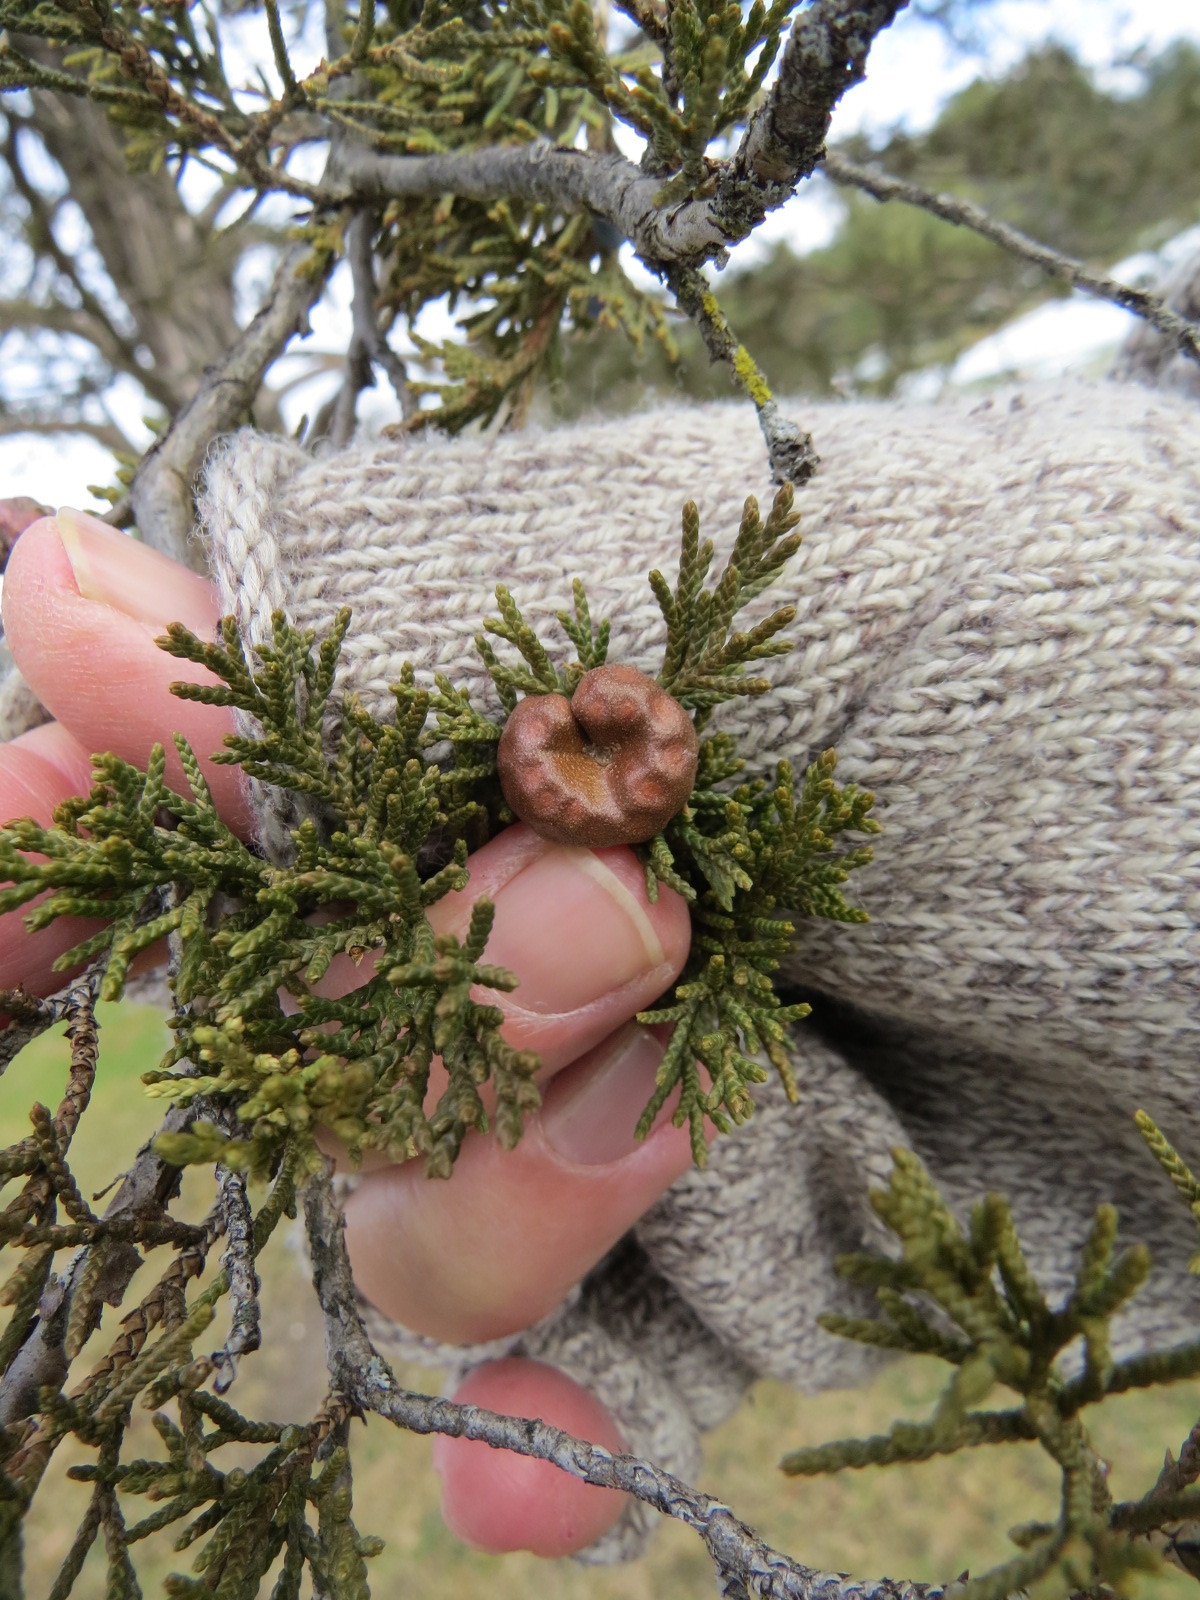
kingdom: Fungi
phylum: Basidiomycota
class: Pucciniomycetes
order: Pucciniales
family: Gymnosporangiaceae
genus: Gymnosporangium
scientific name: Gymnosporangium juniperi-virginianae
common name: Juniper-apple rust
